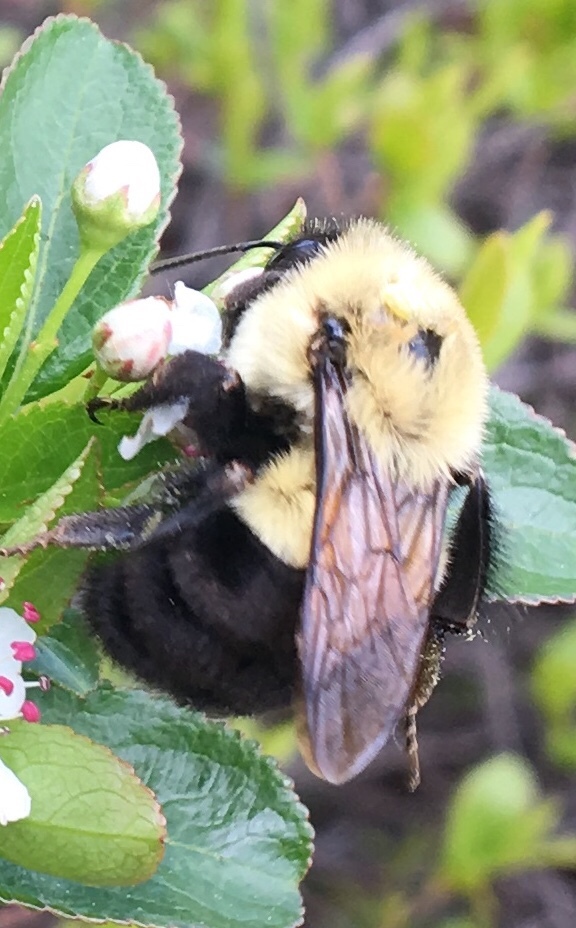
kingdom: Animalia
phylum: Arthropoda
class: Insecta
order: Hymenoptera
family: Apidae
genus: Bombus
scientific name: Bombus impatiens
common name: Common eastern bumble bee
